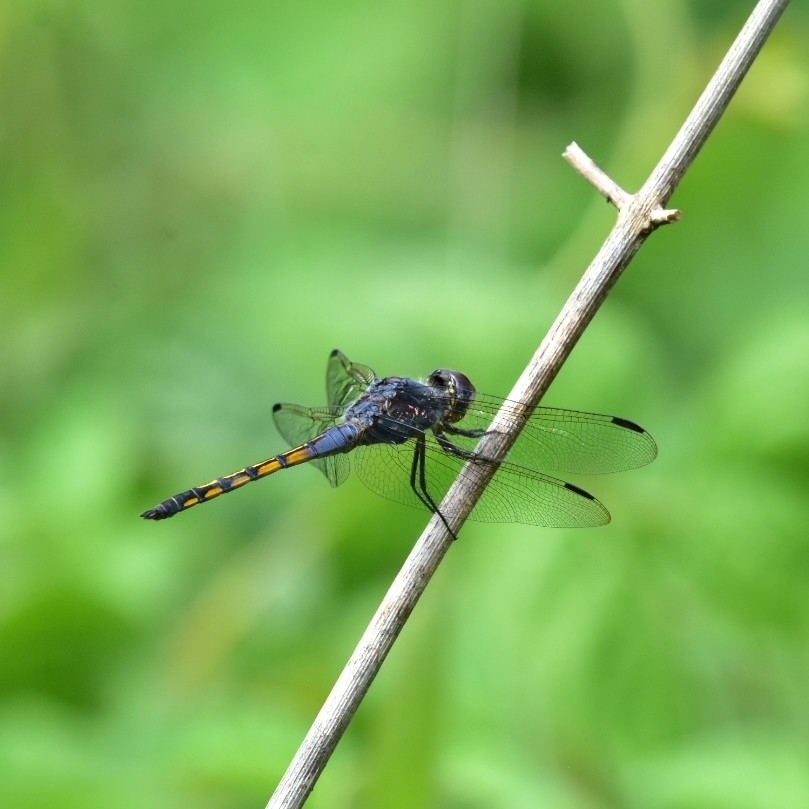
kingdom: Animalia
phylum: Arthropoda
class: Insecta
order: Odonata
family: Libellulidae
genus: Potamarcha
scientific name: Potamarcha congener
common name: Blue chaser
